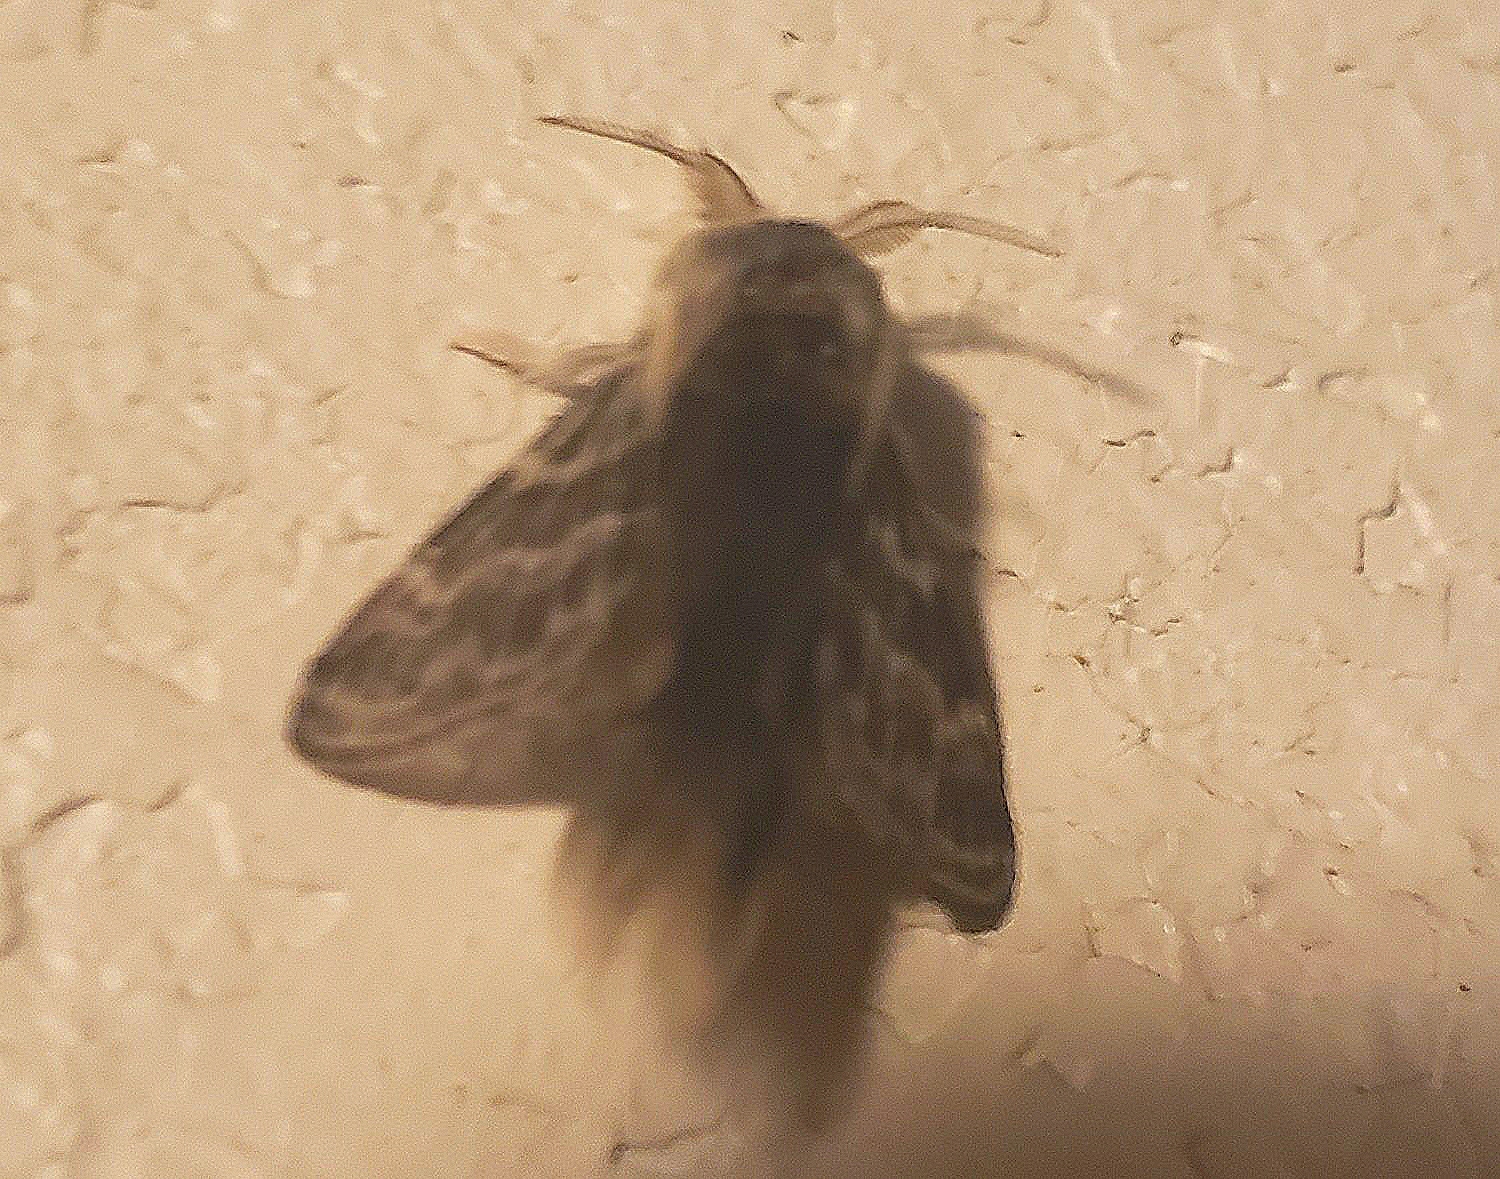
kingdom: Animalia
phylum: Arthropoda
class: Insecta
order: Lepidoptera
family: Lasiocampidae
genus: Tolype
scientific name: Tolype laricis
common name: Larch tolype moth
